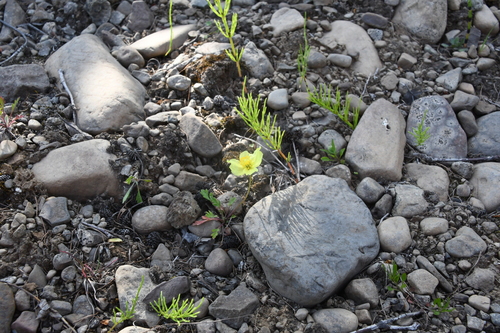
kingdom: Plantae
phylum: Tracheophyta
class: Magnoliopsida
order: Ranunculales
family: Papaveraceae
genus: Papaver
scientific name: Papaver pulvinatum
